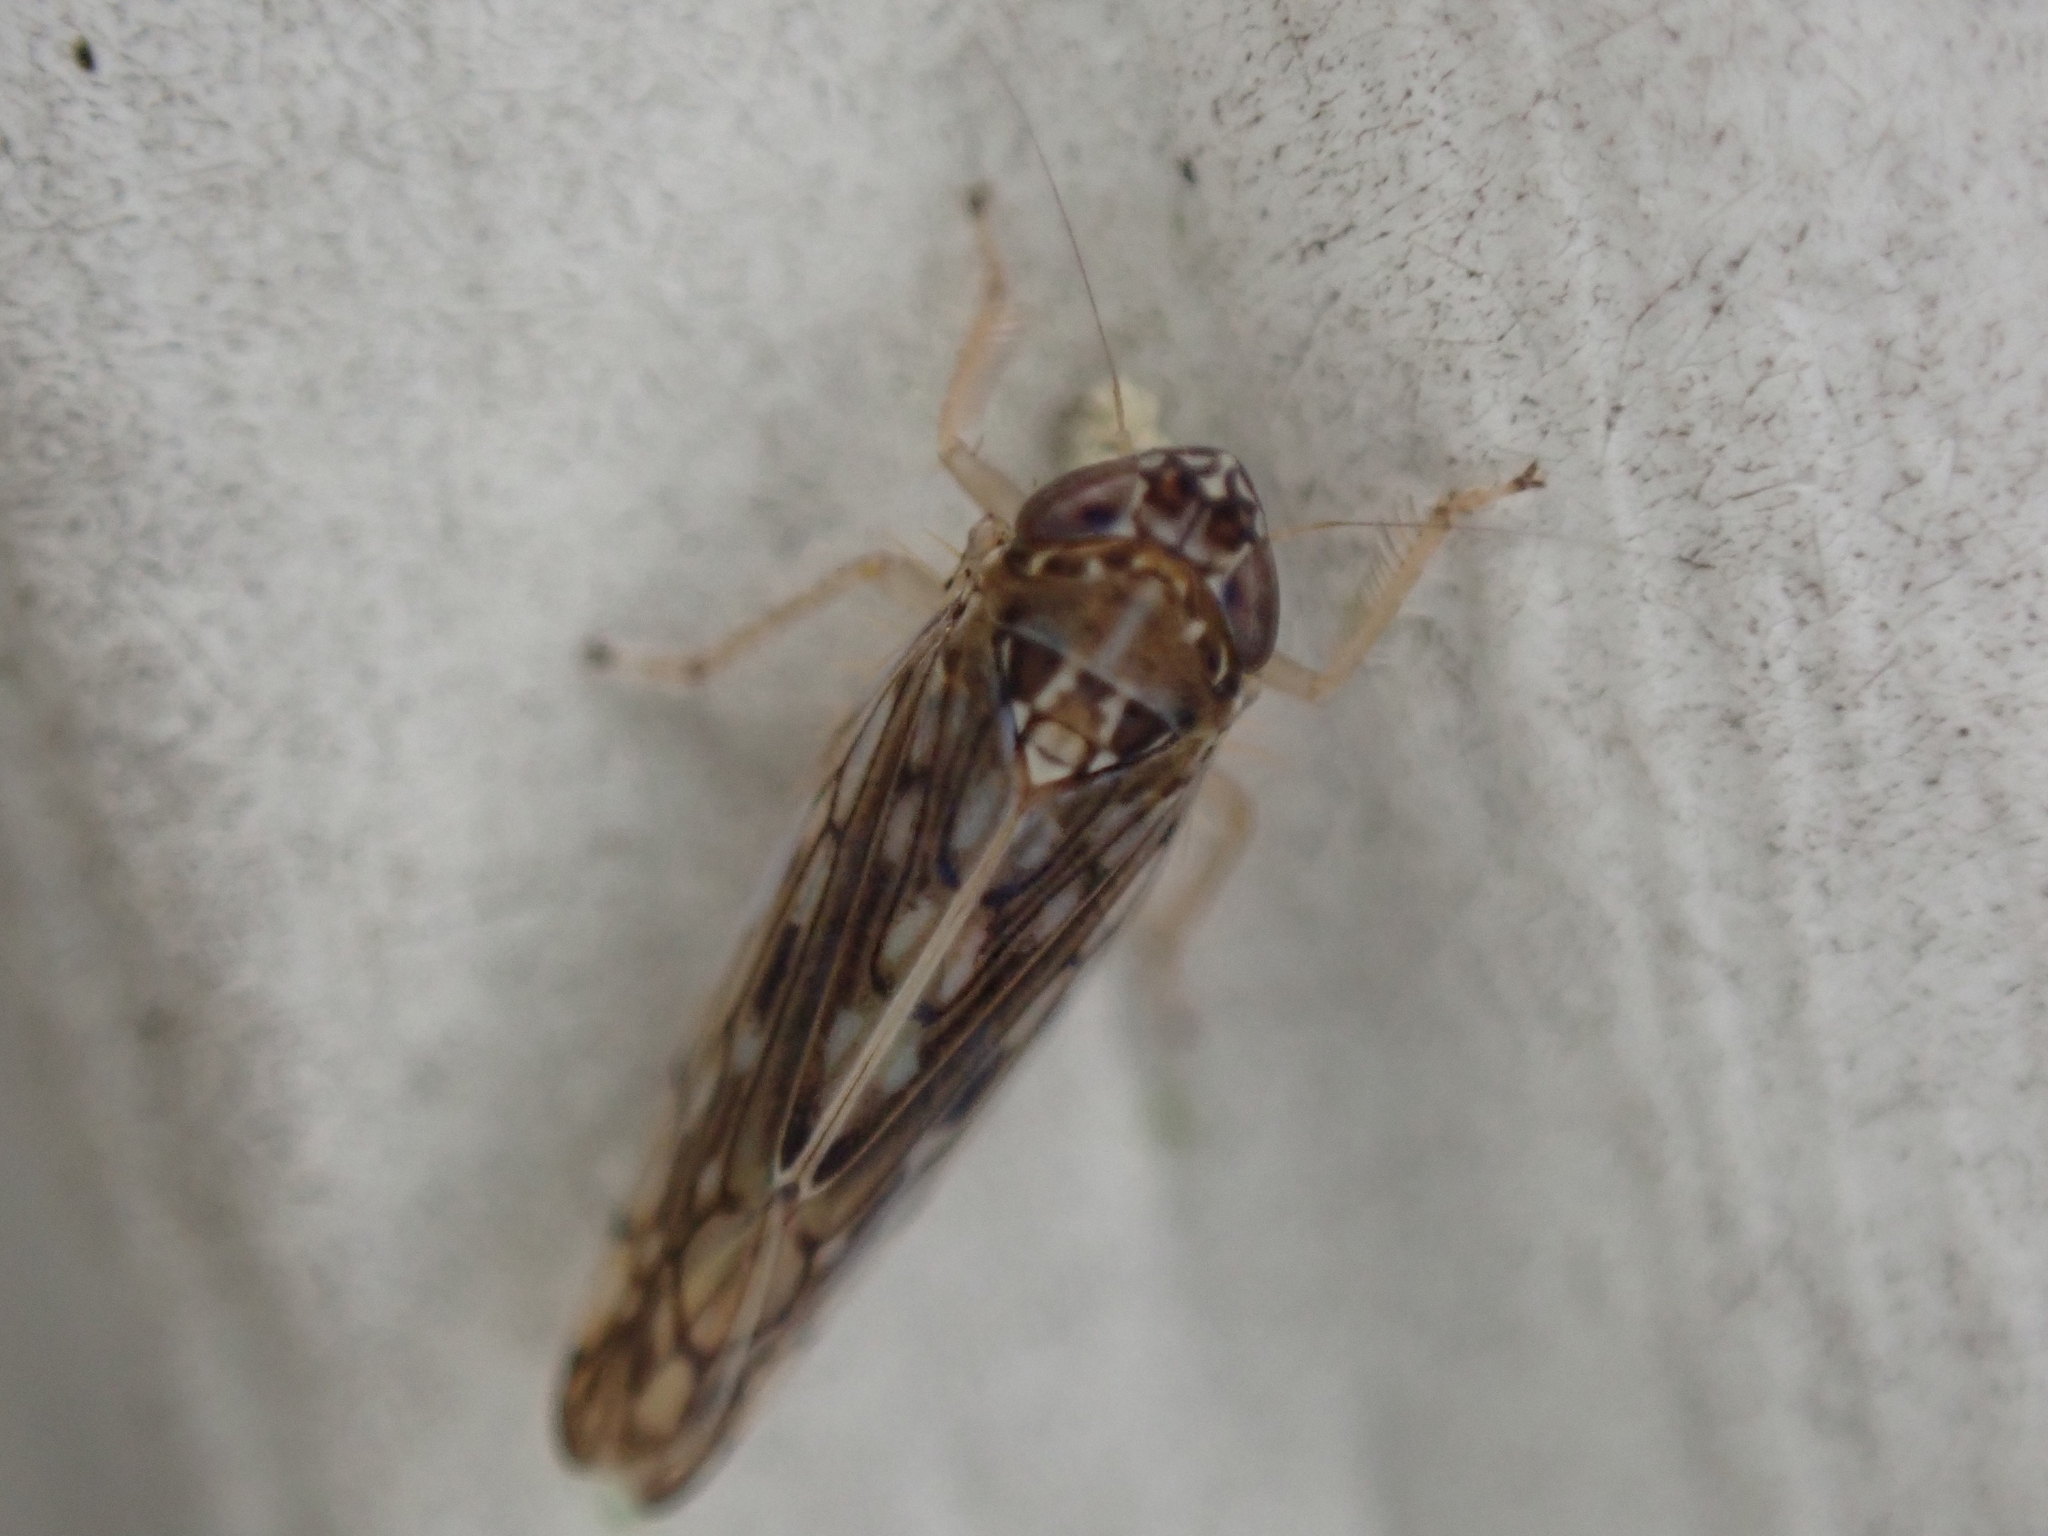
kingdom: Animalia
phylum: Arthropoda
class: Insecta
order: Hemiptera
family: Cicadellidae
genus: Osbornellus
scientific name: Osbornellus clarus
